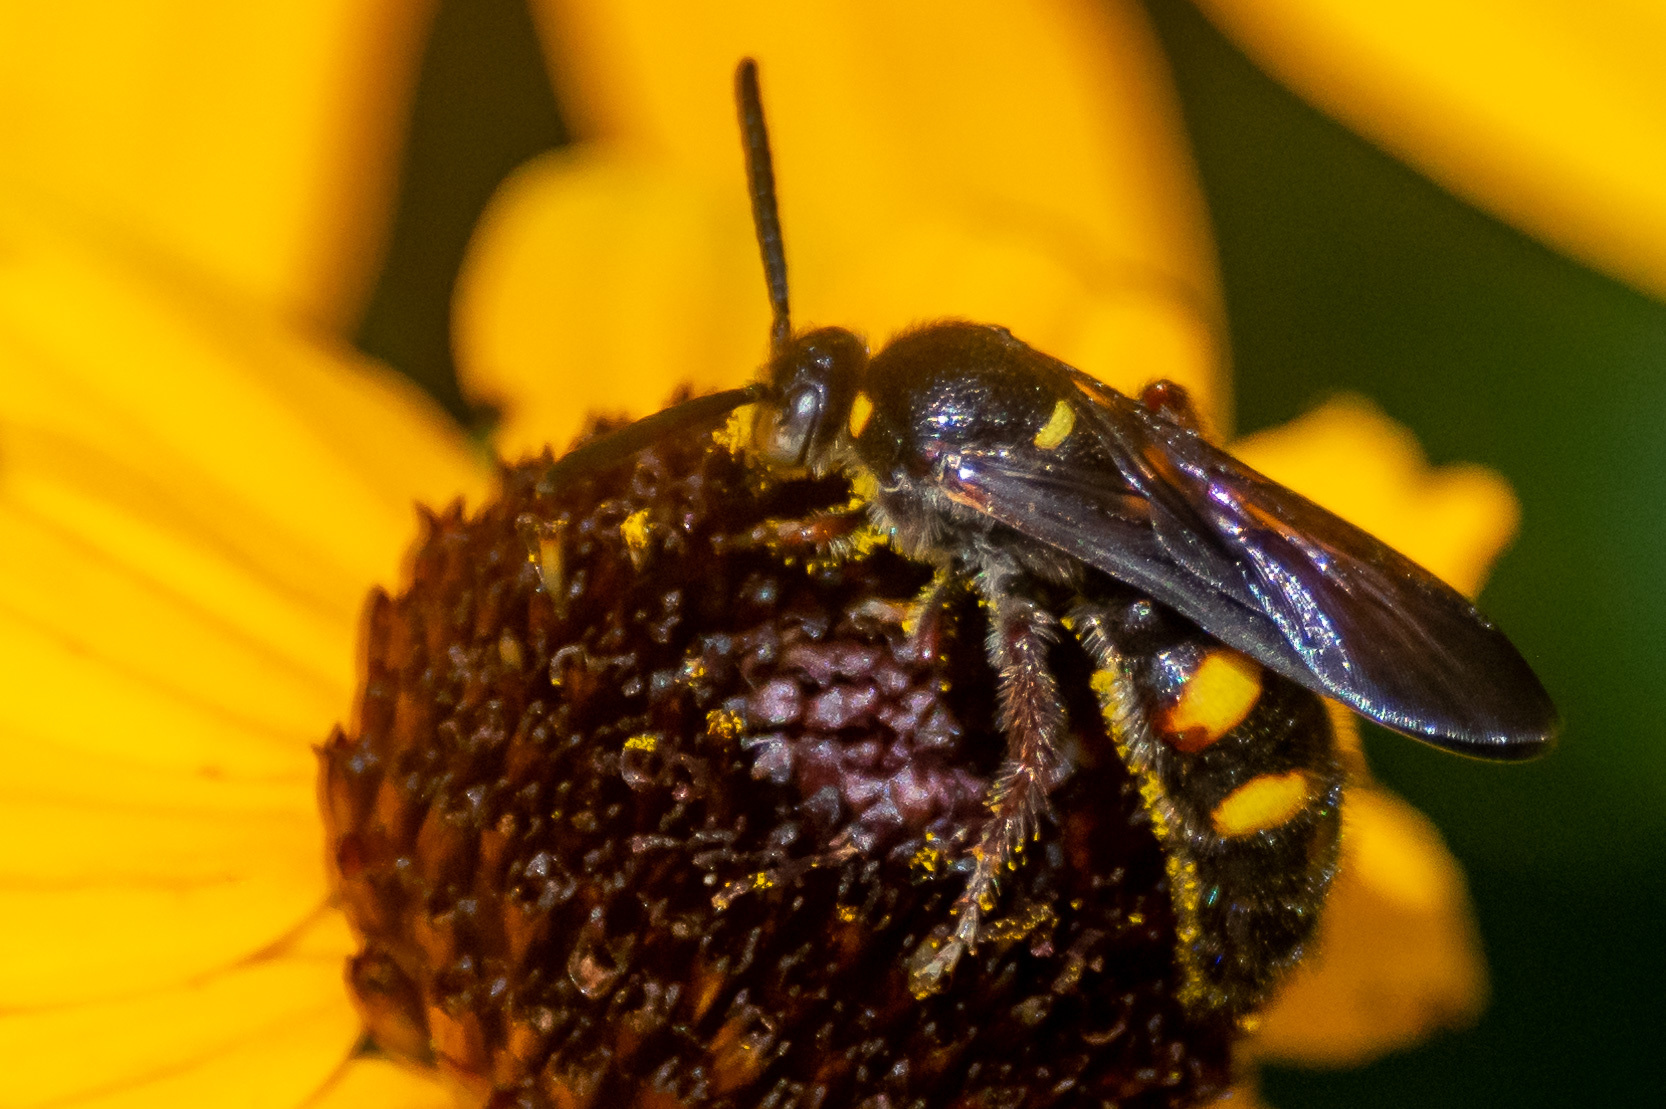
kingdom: Animalia
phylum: Arthropoda
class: Insecta
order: Hymenoptera
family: Scoliidae
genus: Scolia
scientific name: Scolia nobilitata
